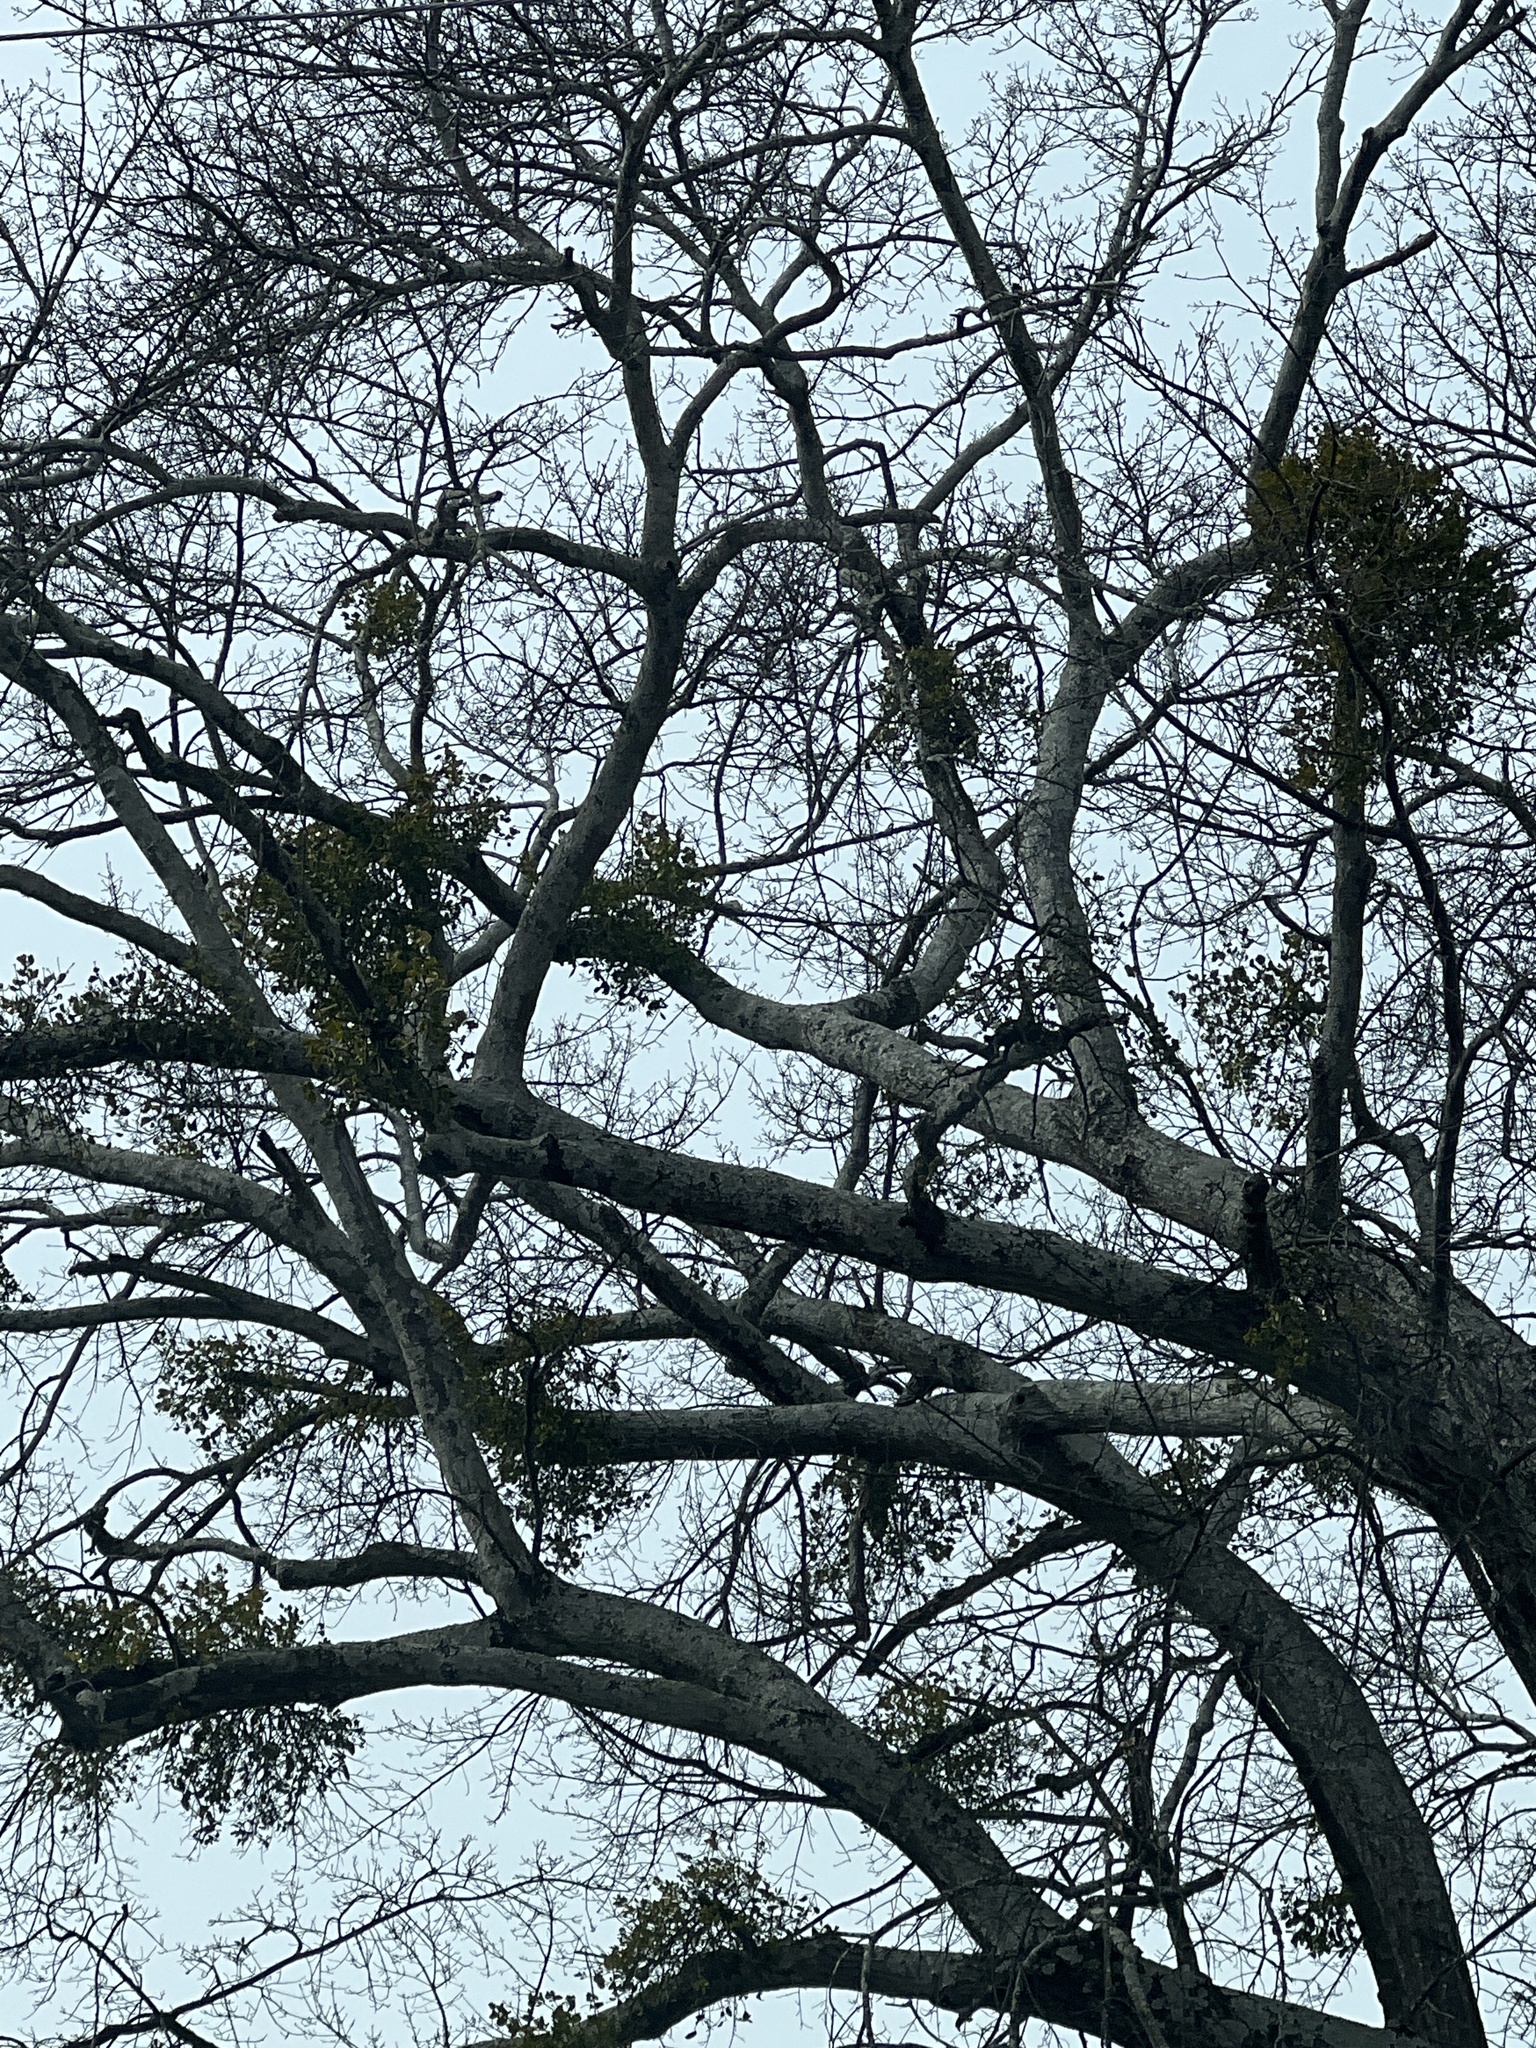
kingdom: Plantae
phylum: Tracheophyta
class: Magnoliopsida
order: Santalales
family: Viscaceae
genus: Phoradendron
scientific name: Phoradendron leucarpum
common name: Pacific mistletoe
